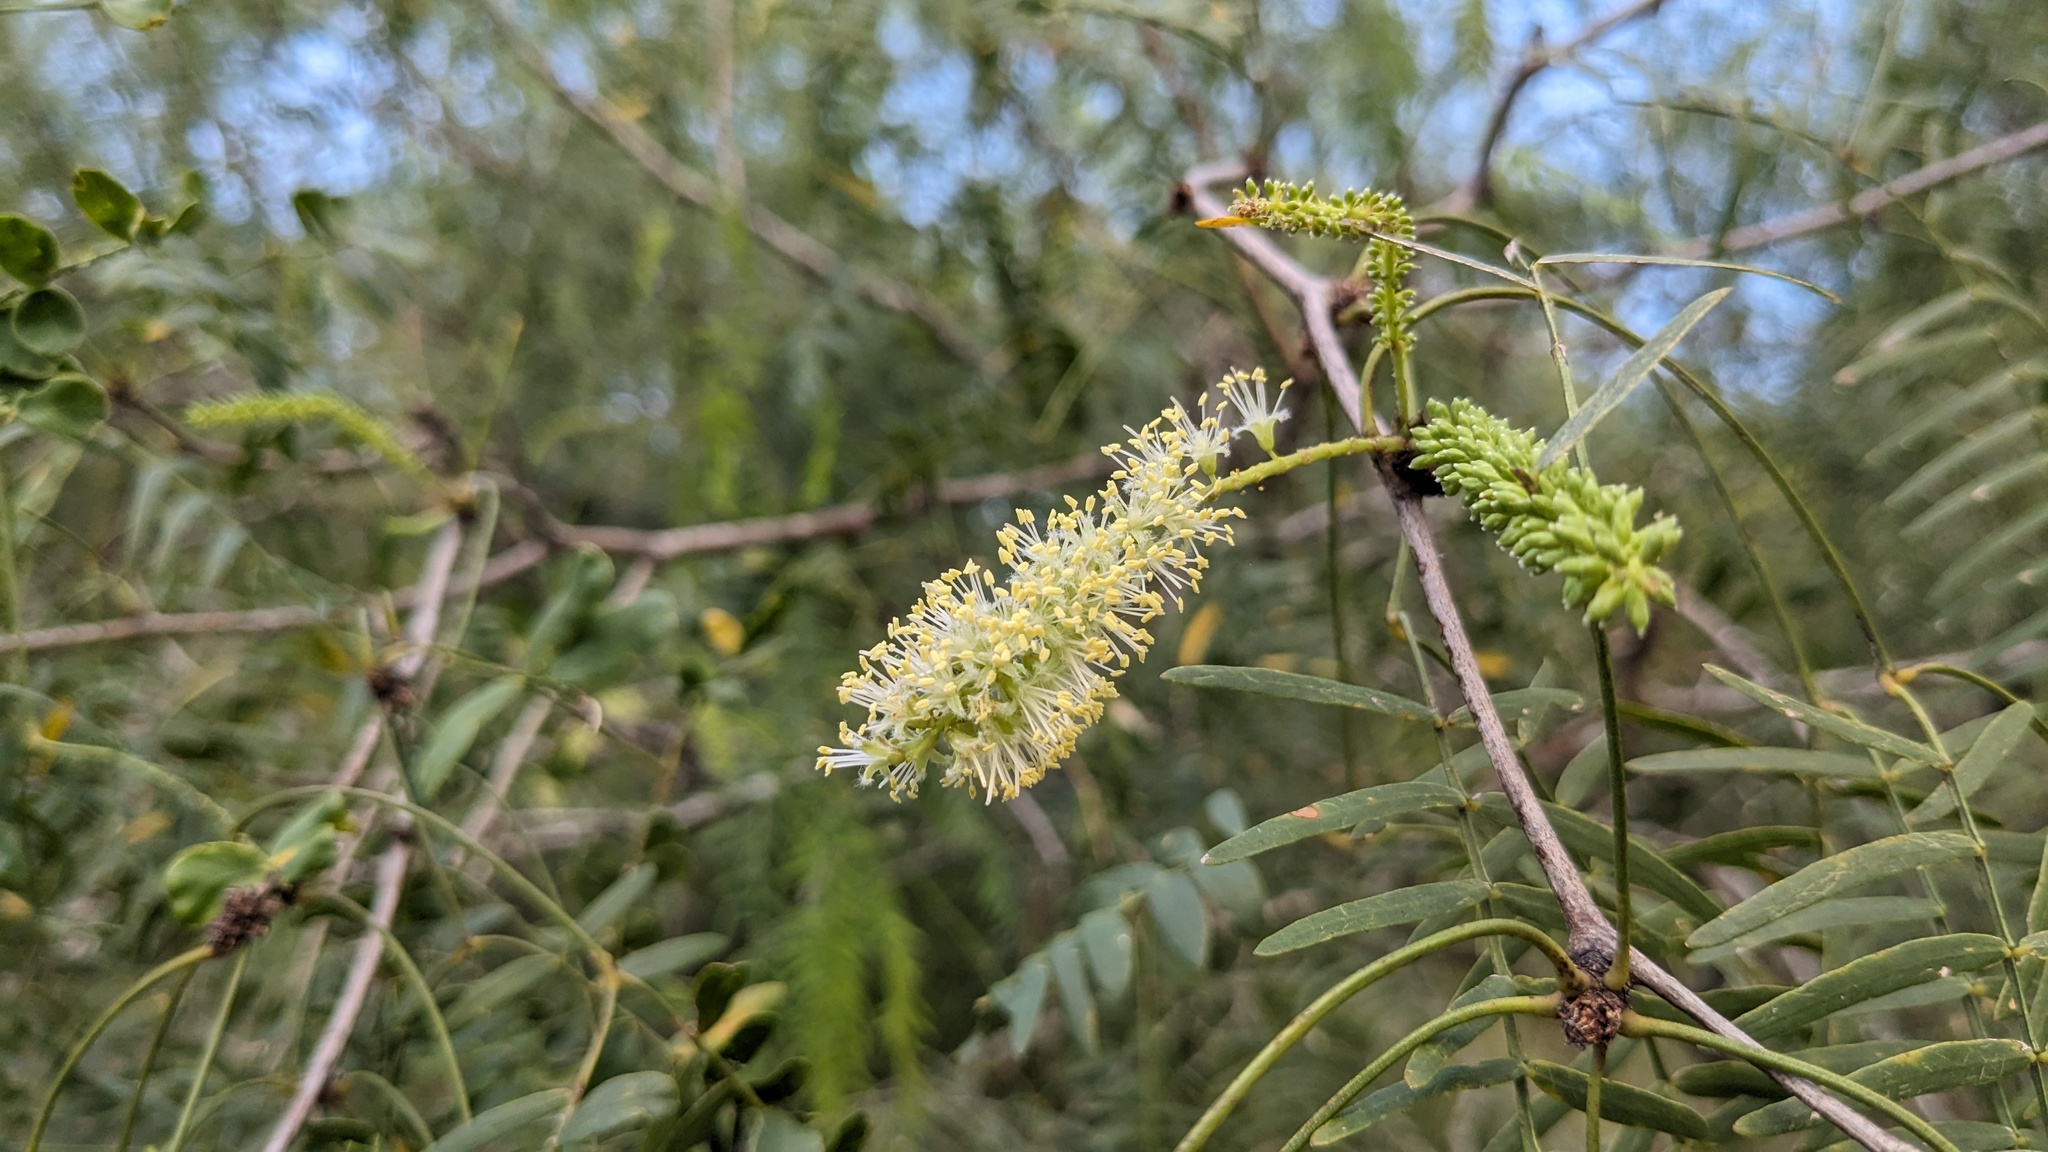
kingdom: Plantae
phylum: Tracheophyta
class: Magnoliopsida
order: Fabales
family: Fabaceae
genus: Prosopis
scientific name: Prosopis glandulosa
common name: Honey mesquite
